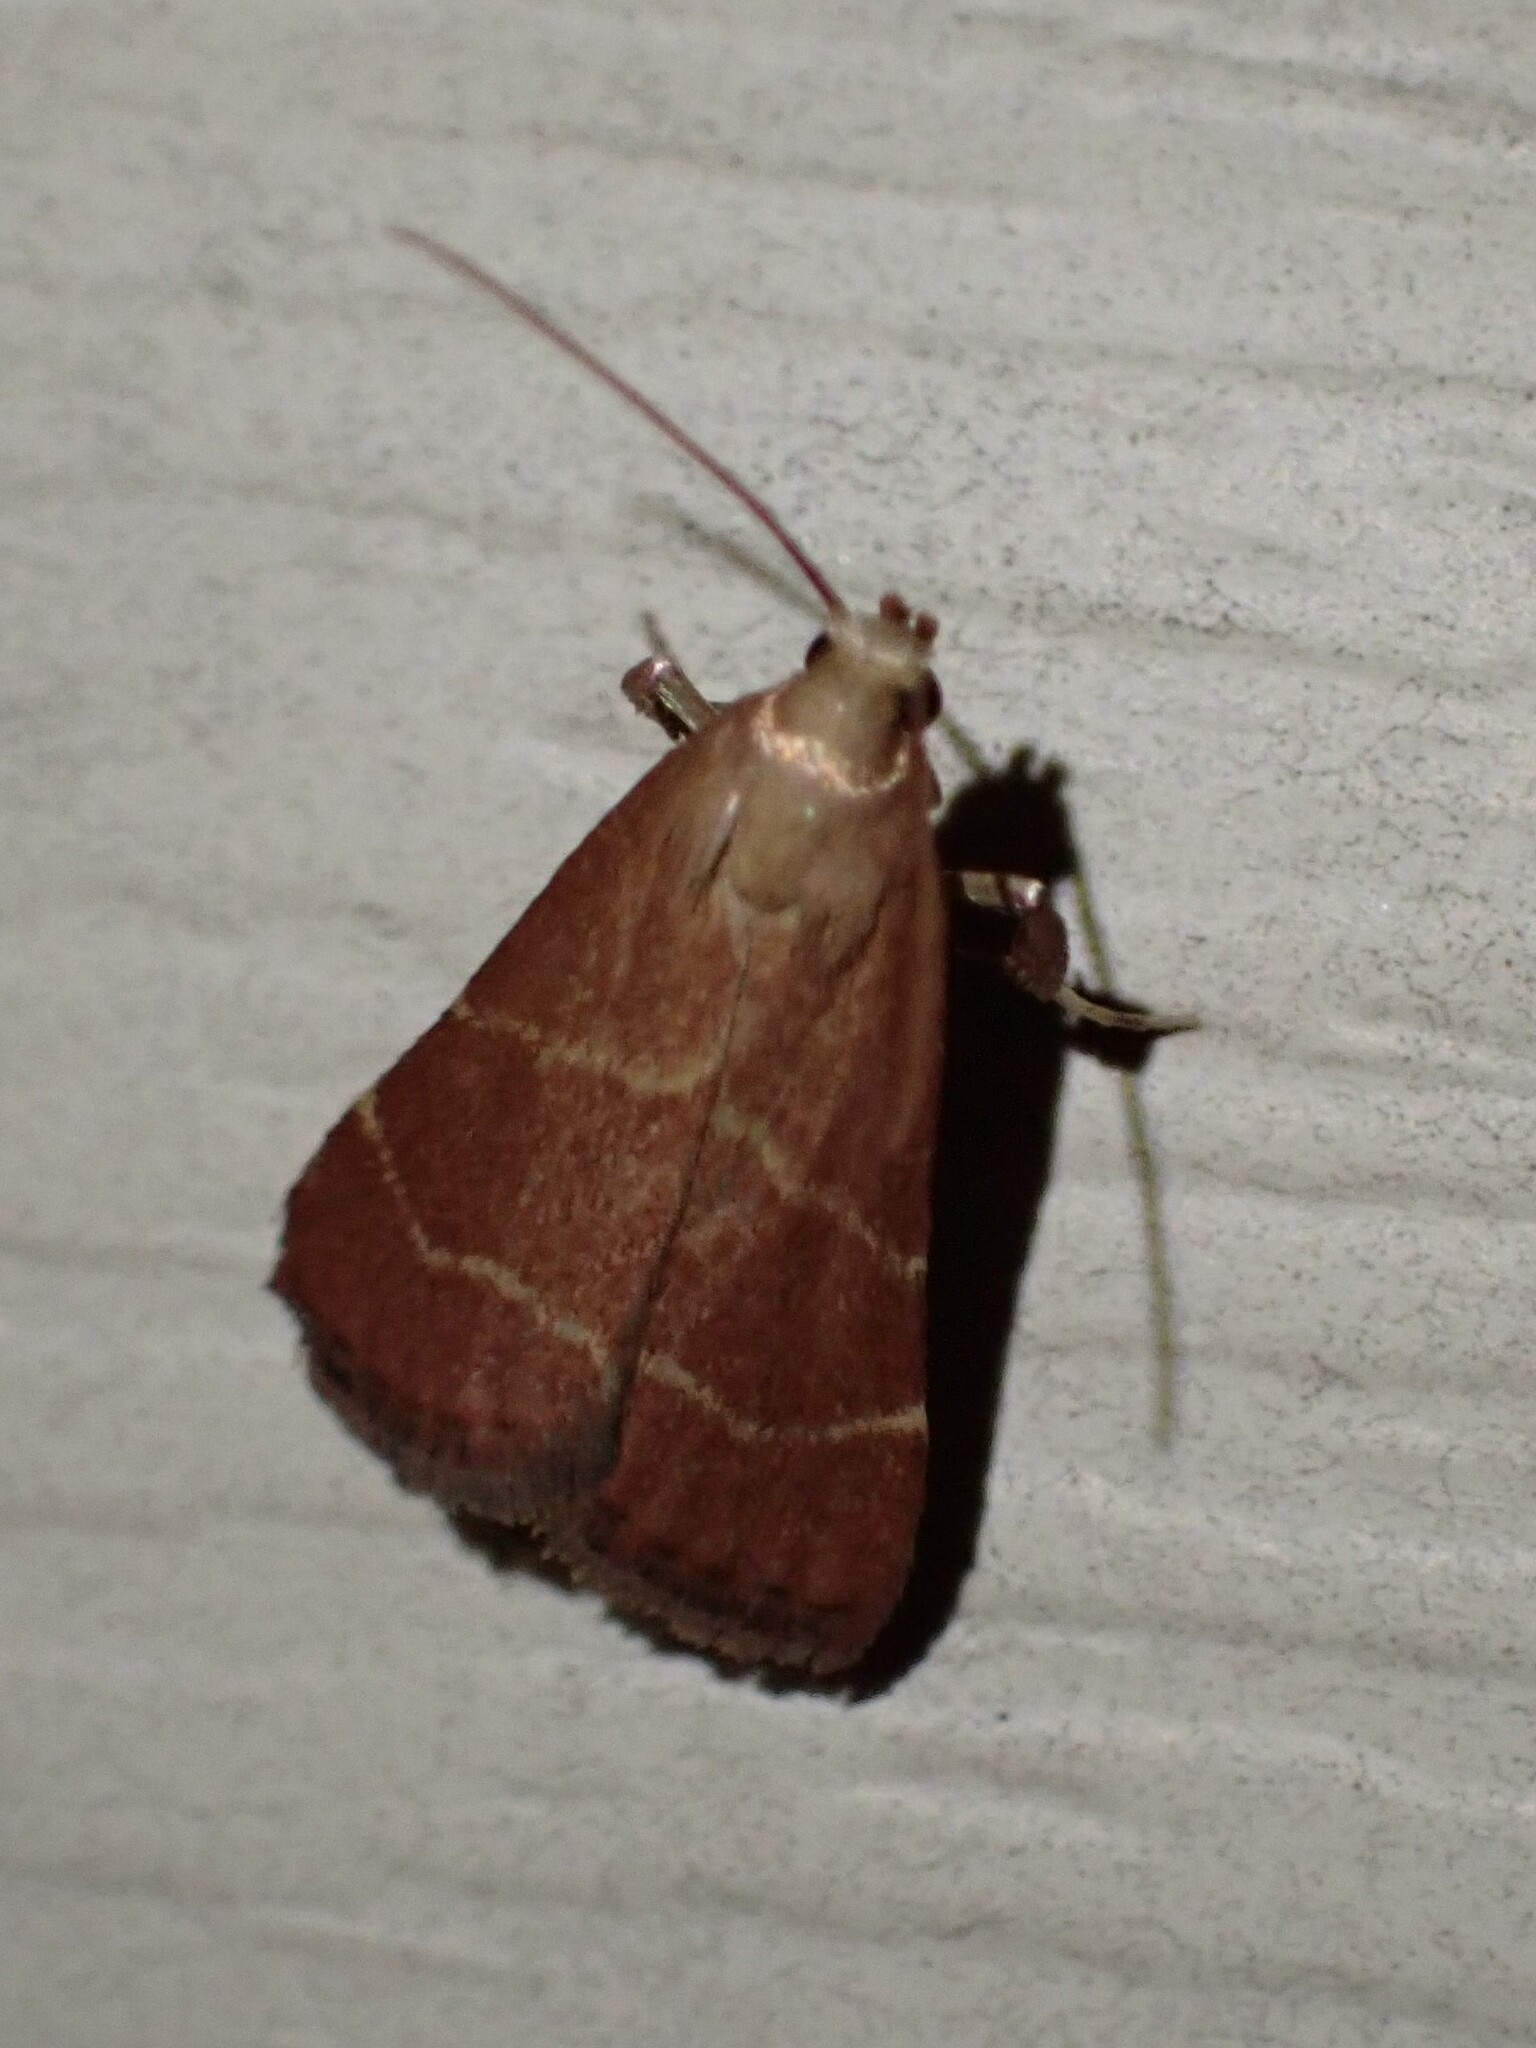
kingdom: Animalia
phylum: Arthropoda
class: Insecta
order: Lepidoptera
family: Pyralidae
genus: Arta
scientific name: Arta statalis
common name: Posturing arta moth
